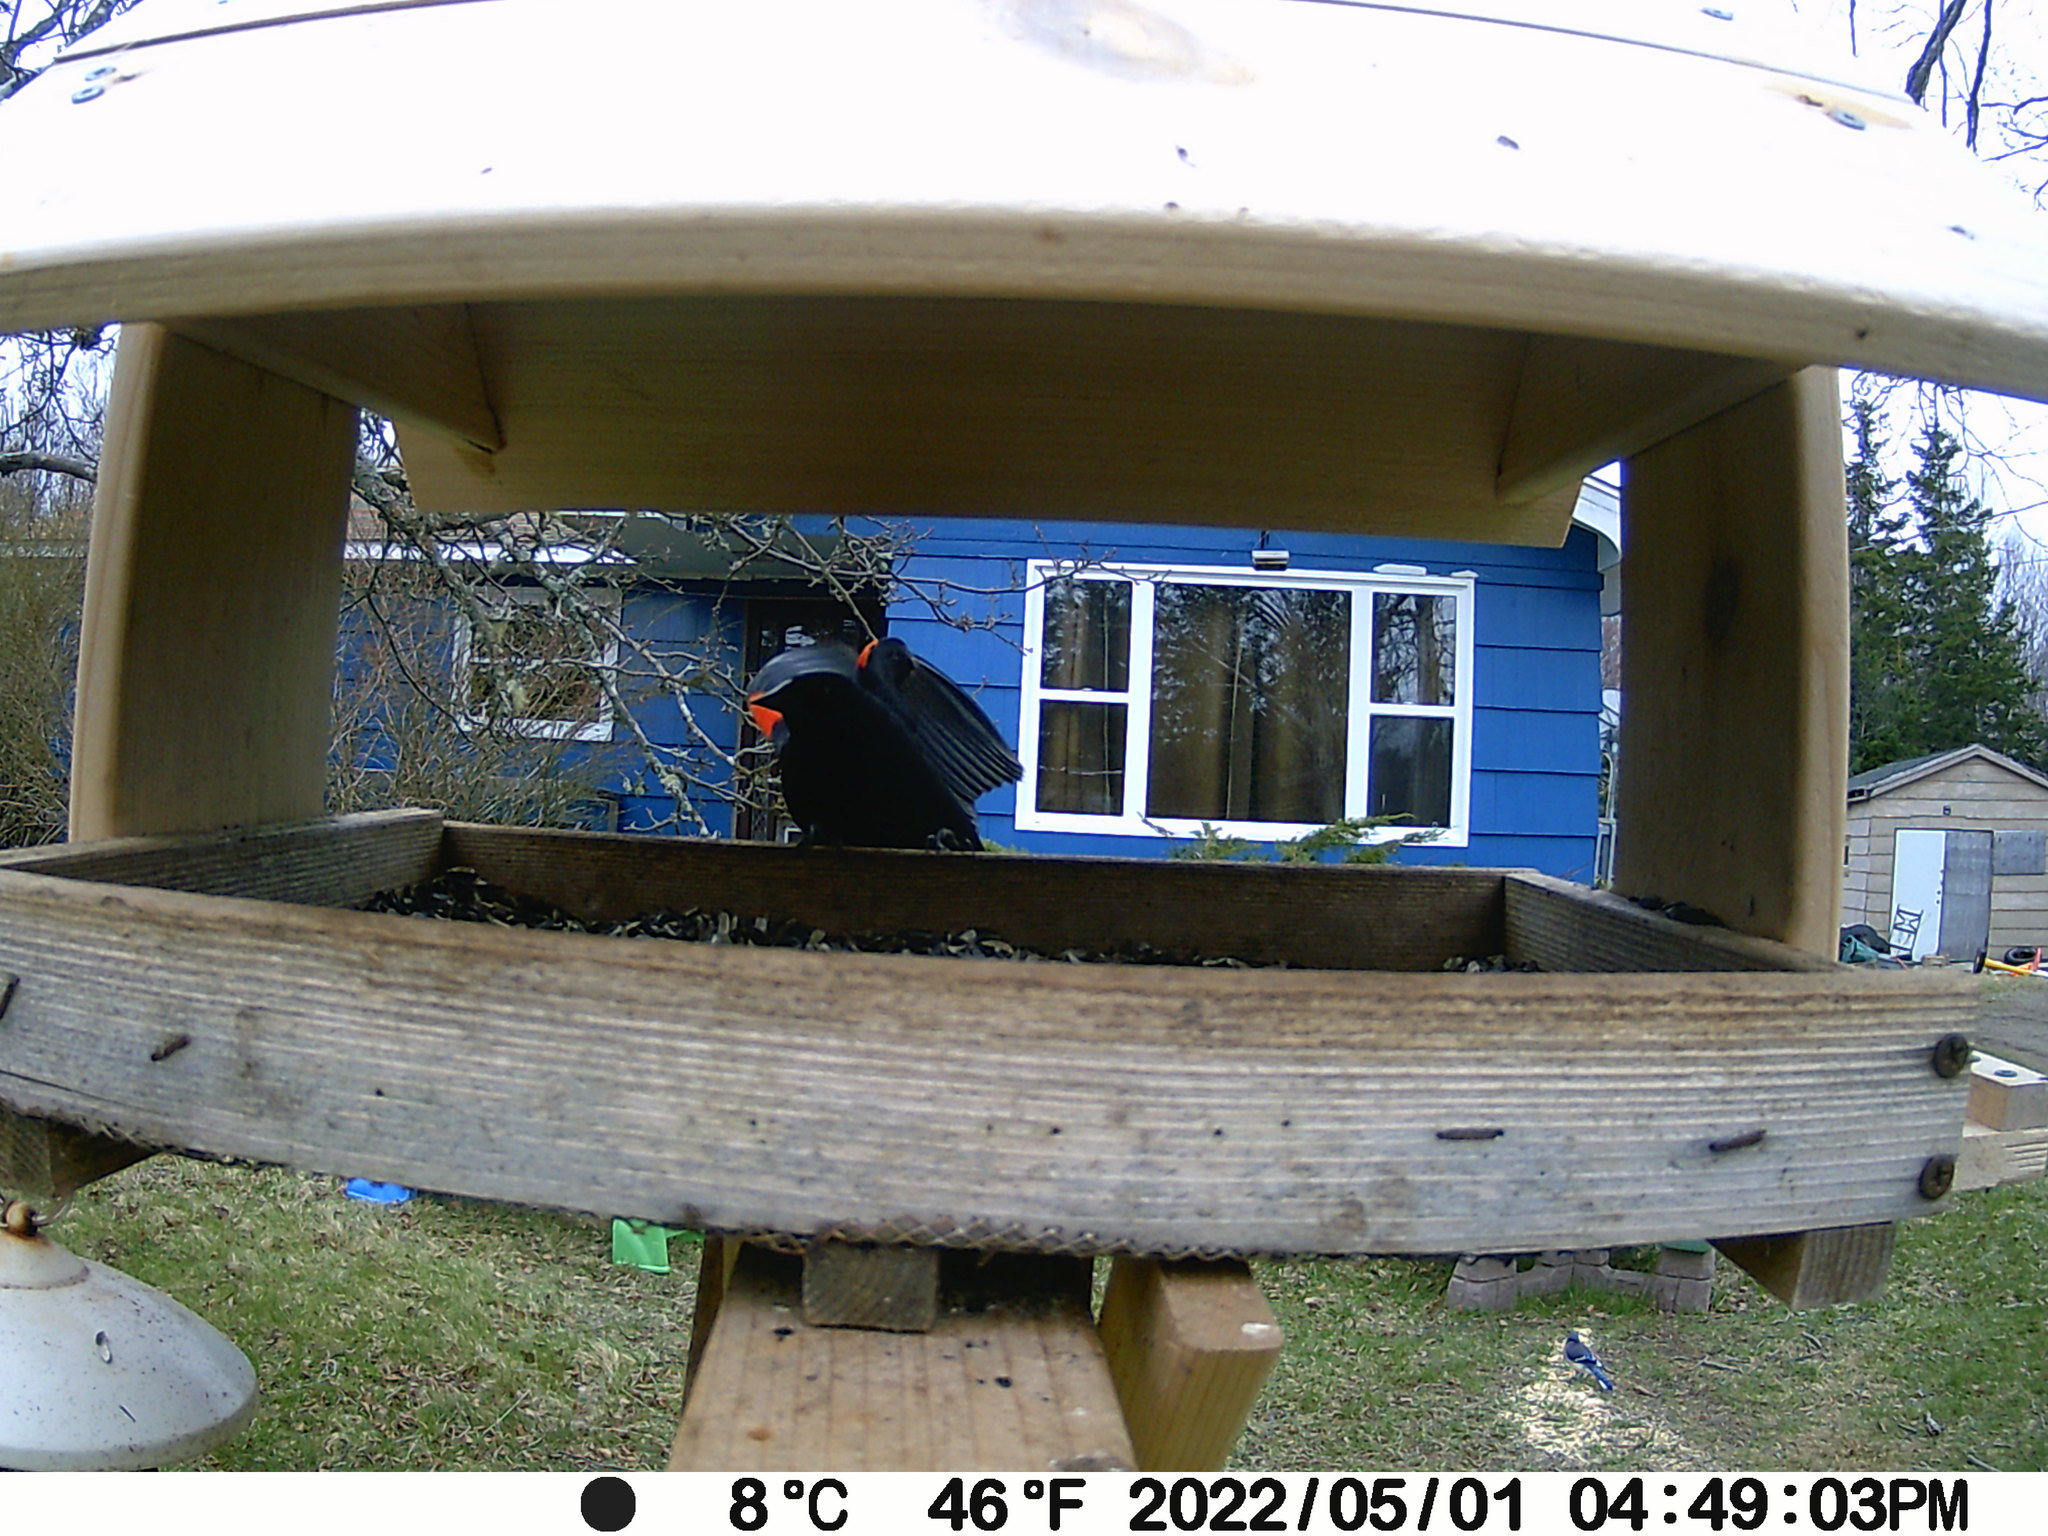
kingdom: Animalia
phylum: Chordata
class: Aves
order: Passeriformes
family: Icteridae
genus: Agelaius
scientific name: Agelaius phoeniceus
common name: Red-winged blackbird
